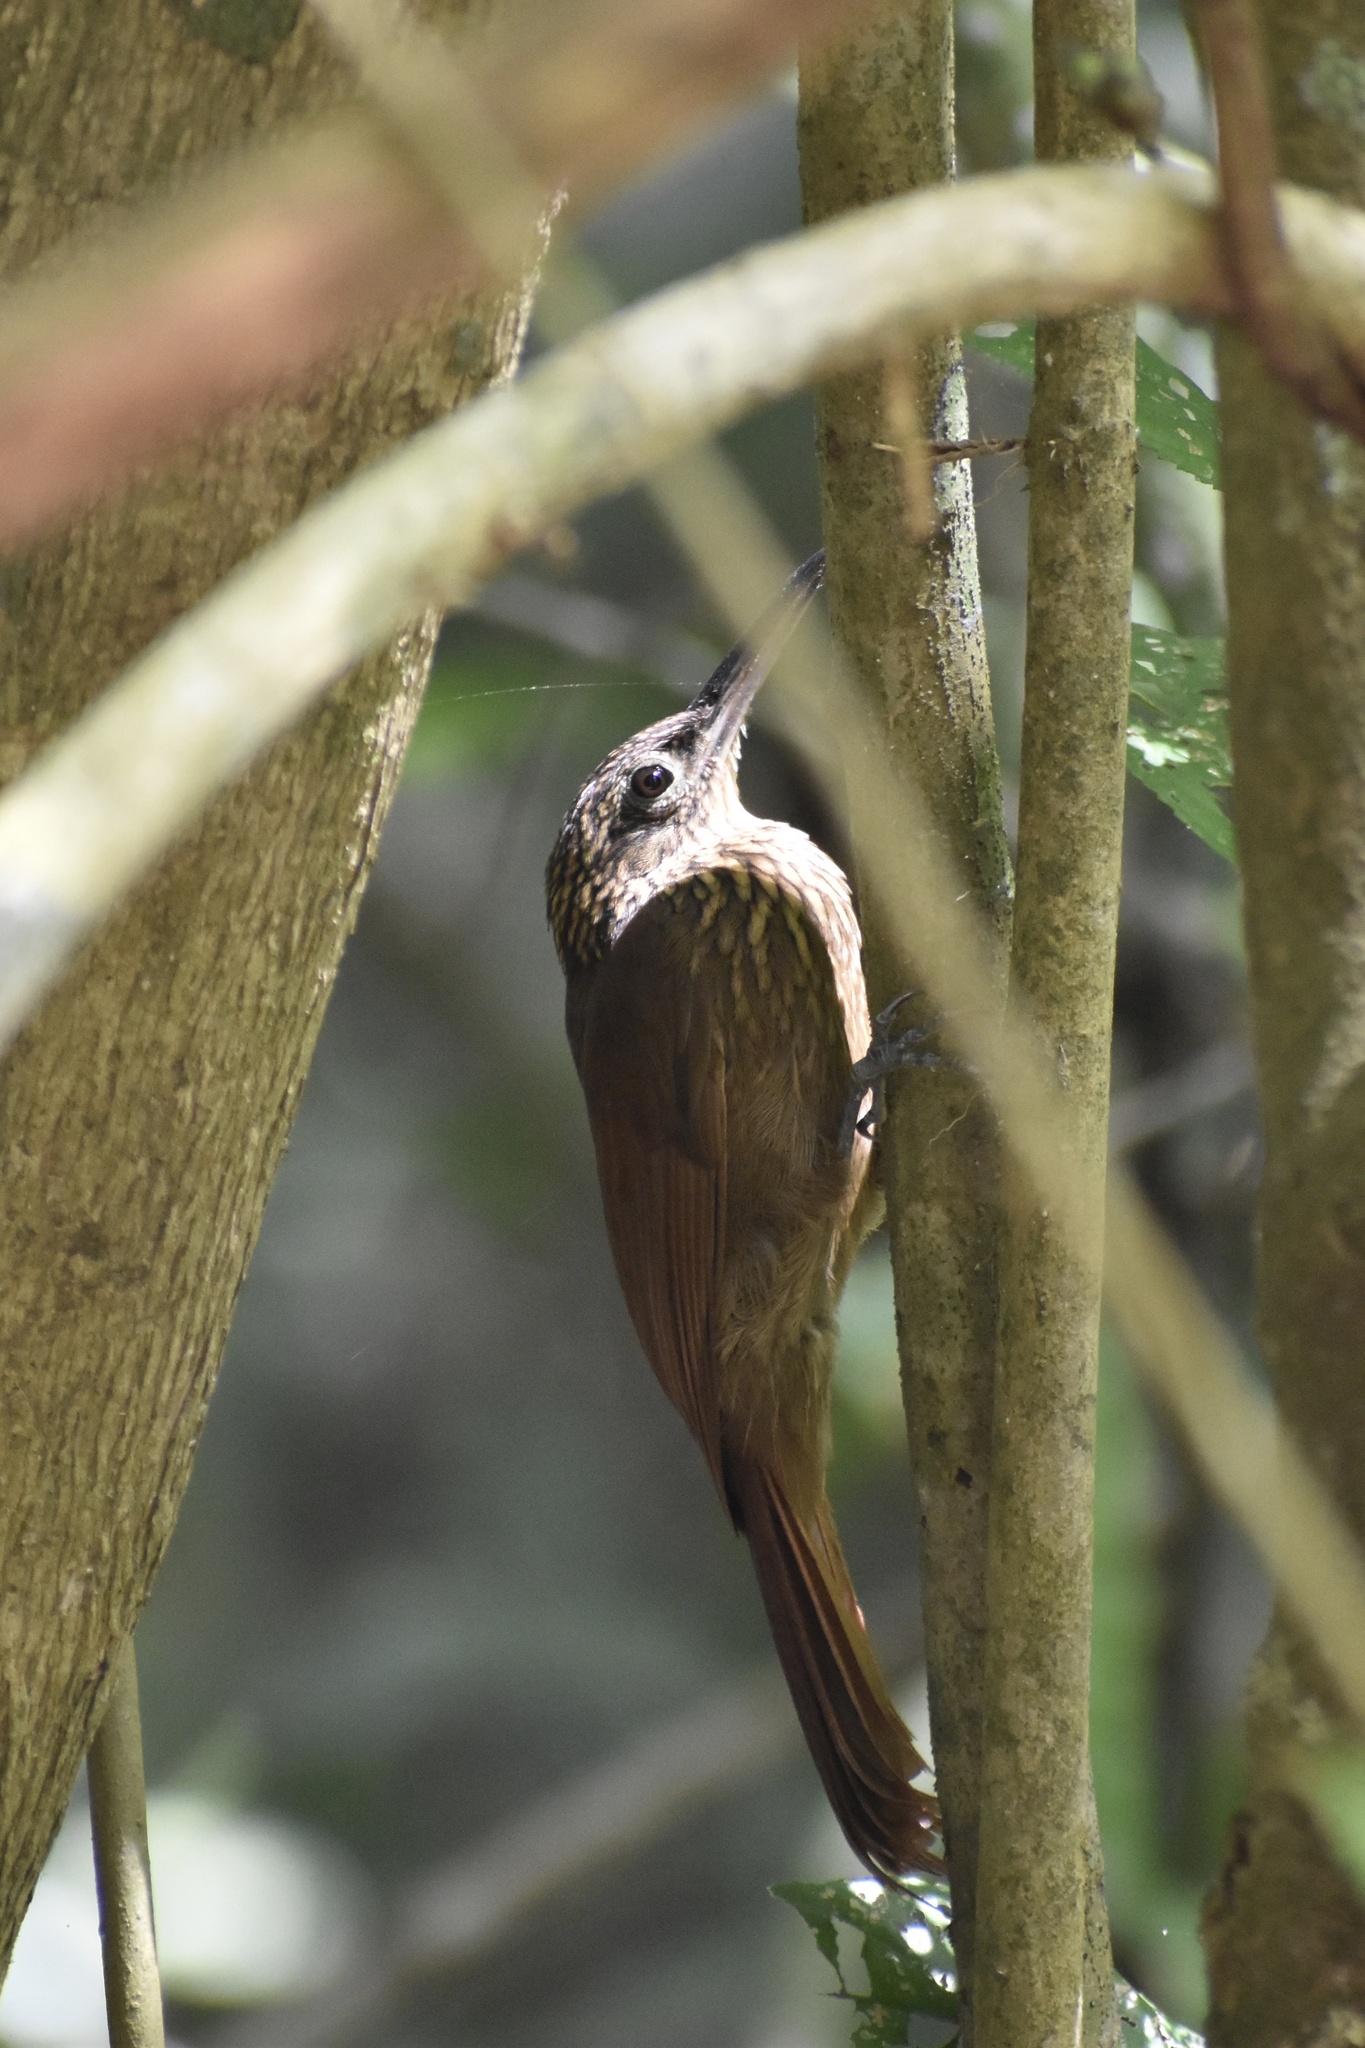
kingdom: Animalia
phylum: Chordata
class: Aves
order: Passeriformes
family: Furnariidae
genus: Xiphorhynchus
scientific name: Xiphorhynchus susurrans
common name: Cocoa woodcreeper
